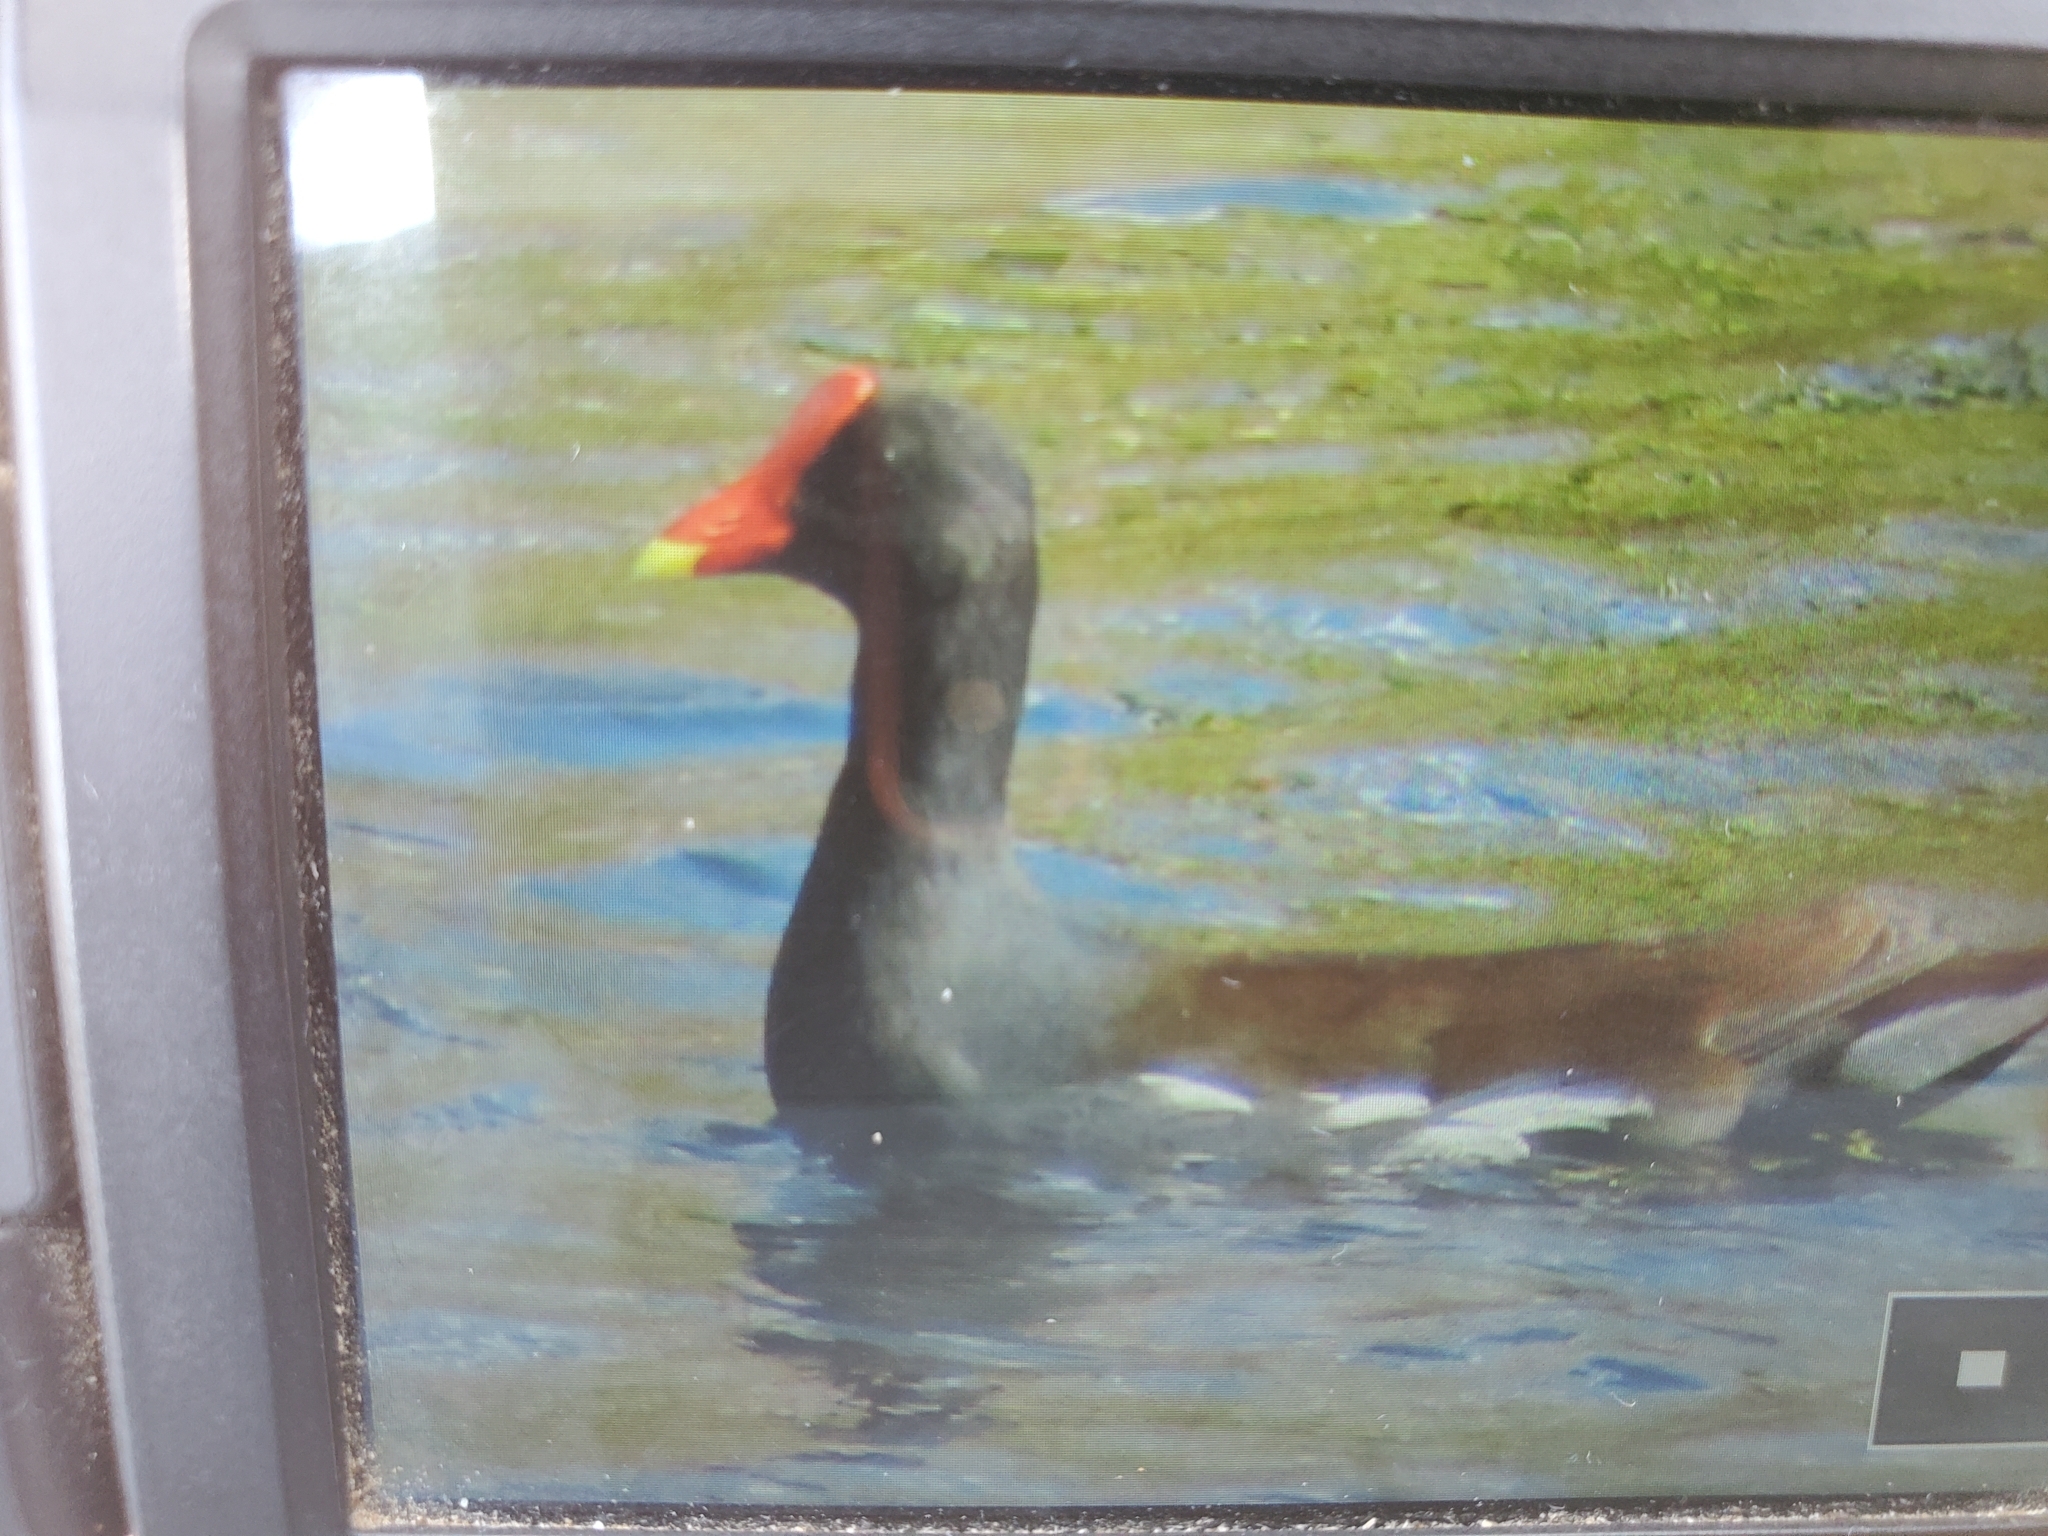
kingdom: Animalia
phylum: Chordata
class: Aves
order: Gruiformes
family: Rallidae
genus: Gallinula
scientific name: Gallinula chloropus
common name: Common moorhen
